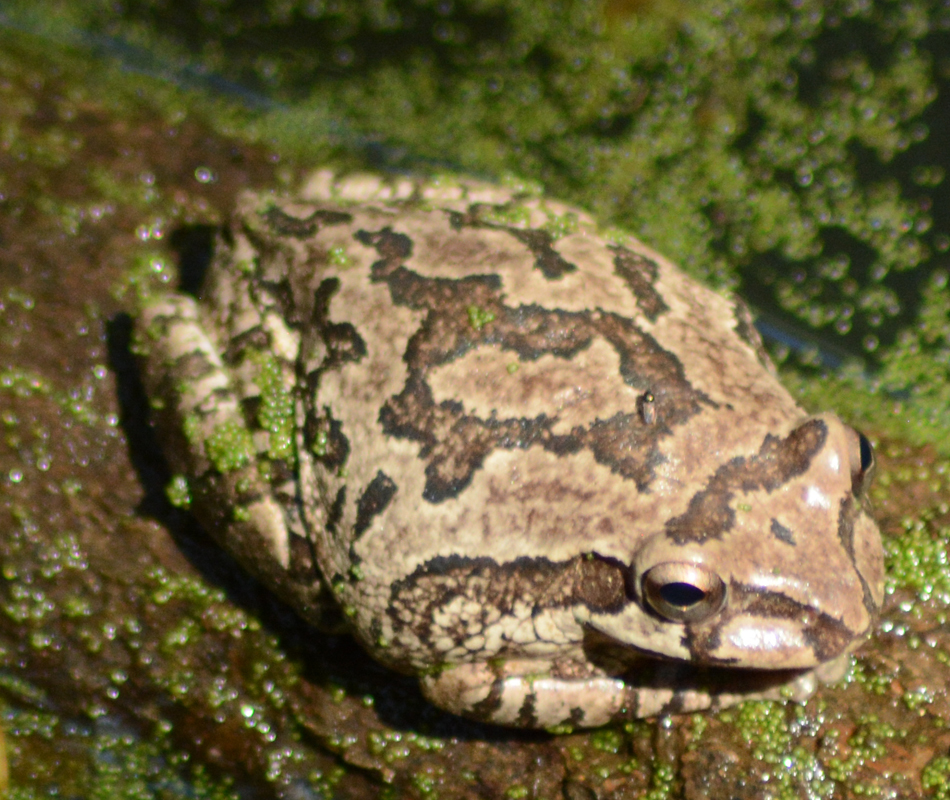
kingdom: Animalia
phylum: Chordata
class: Amphibia
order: Anura
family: Hylidae
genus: Smilisca
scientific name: Smilisca baudinii
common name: Mexican smilisca
